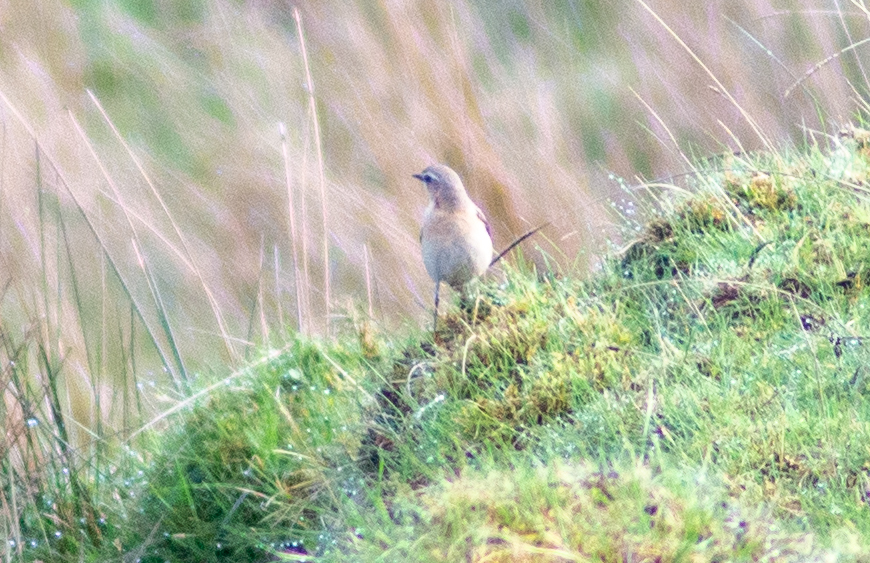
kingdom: Animalia
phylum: Chordata
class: Aves
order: Passeriformes
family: Muscicapidae
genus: Oenanthe
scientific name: Oenanthe oenanthe
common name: Northern wheatear
